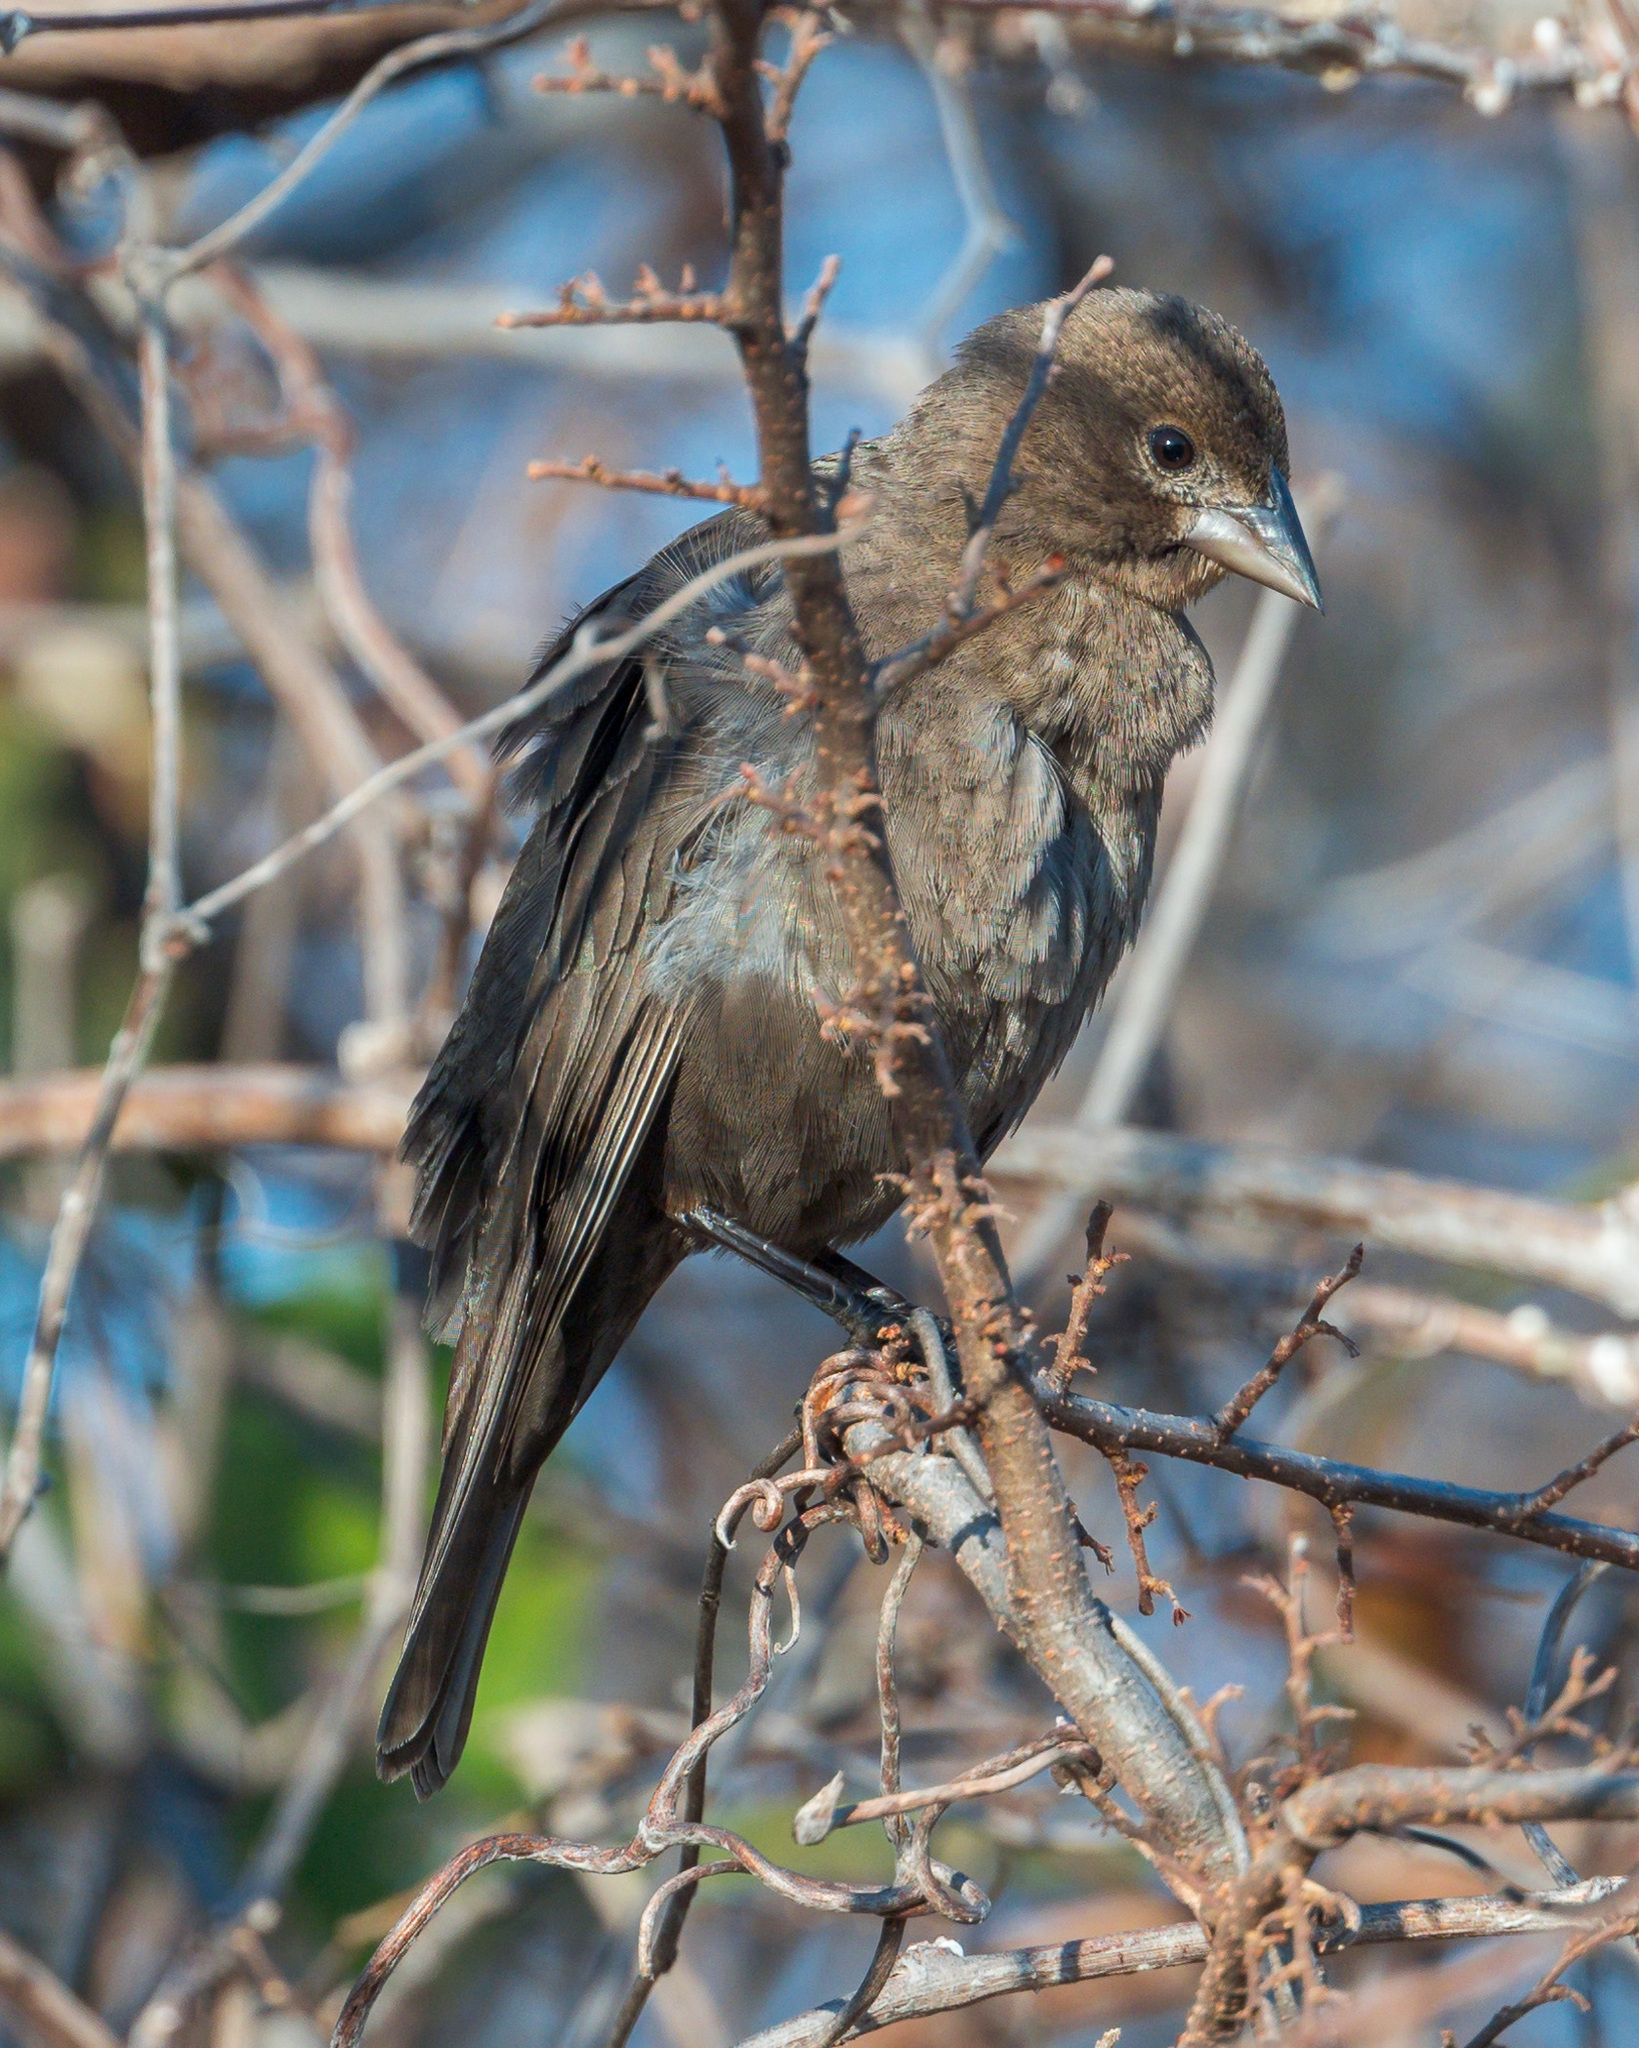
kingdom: Animalia
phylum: Chordata
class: Aves
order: Passeriformes
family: Icteridae
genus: Molothrus
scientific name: Molothrus ater
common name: Brown-headed cowbird
